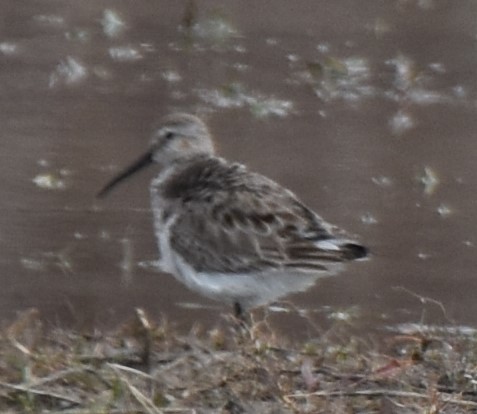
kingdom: Animalia
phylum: Chordata
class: Aves
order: Charadriiformes
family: Scolopacidae
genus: Calidris
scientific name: Calidris alpina
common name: Dunlin
